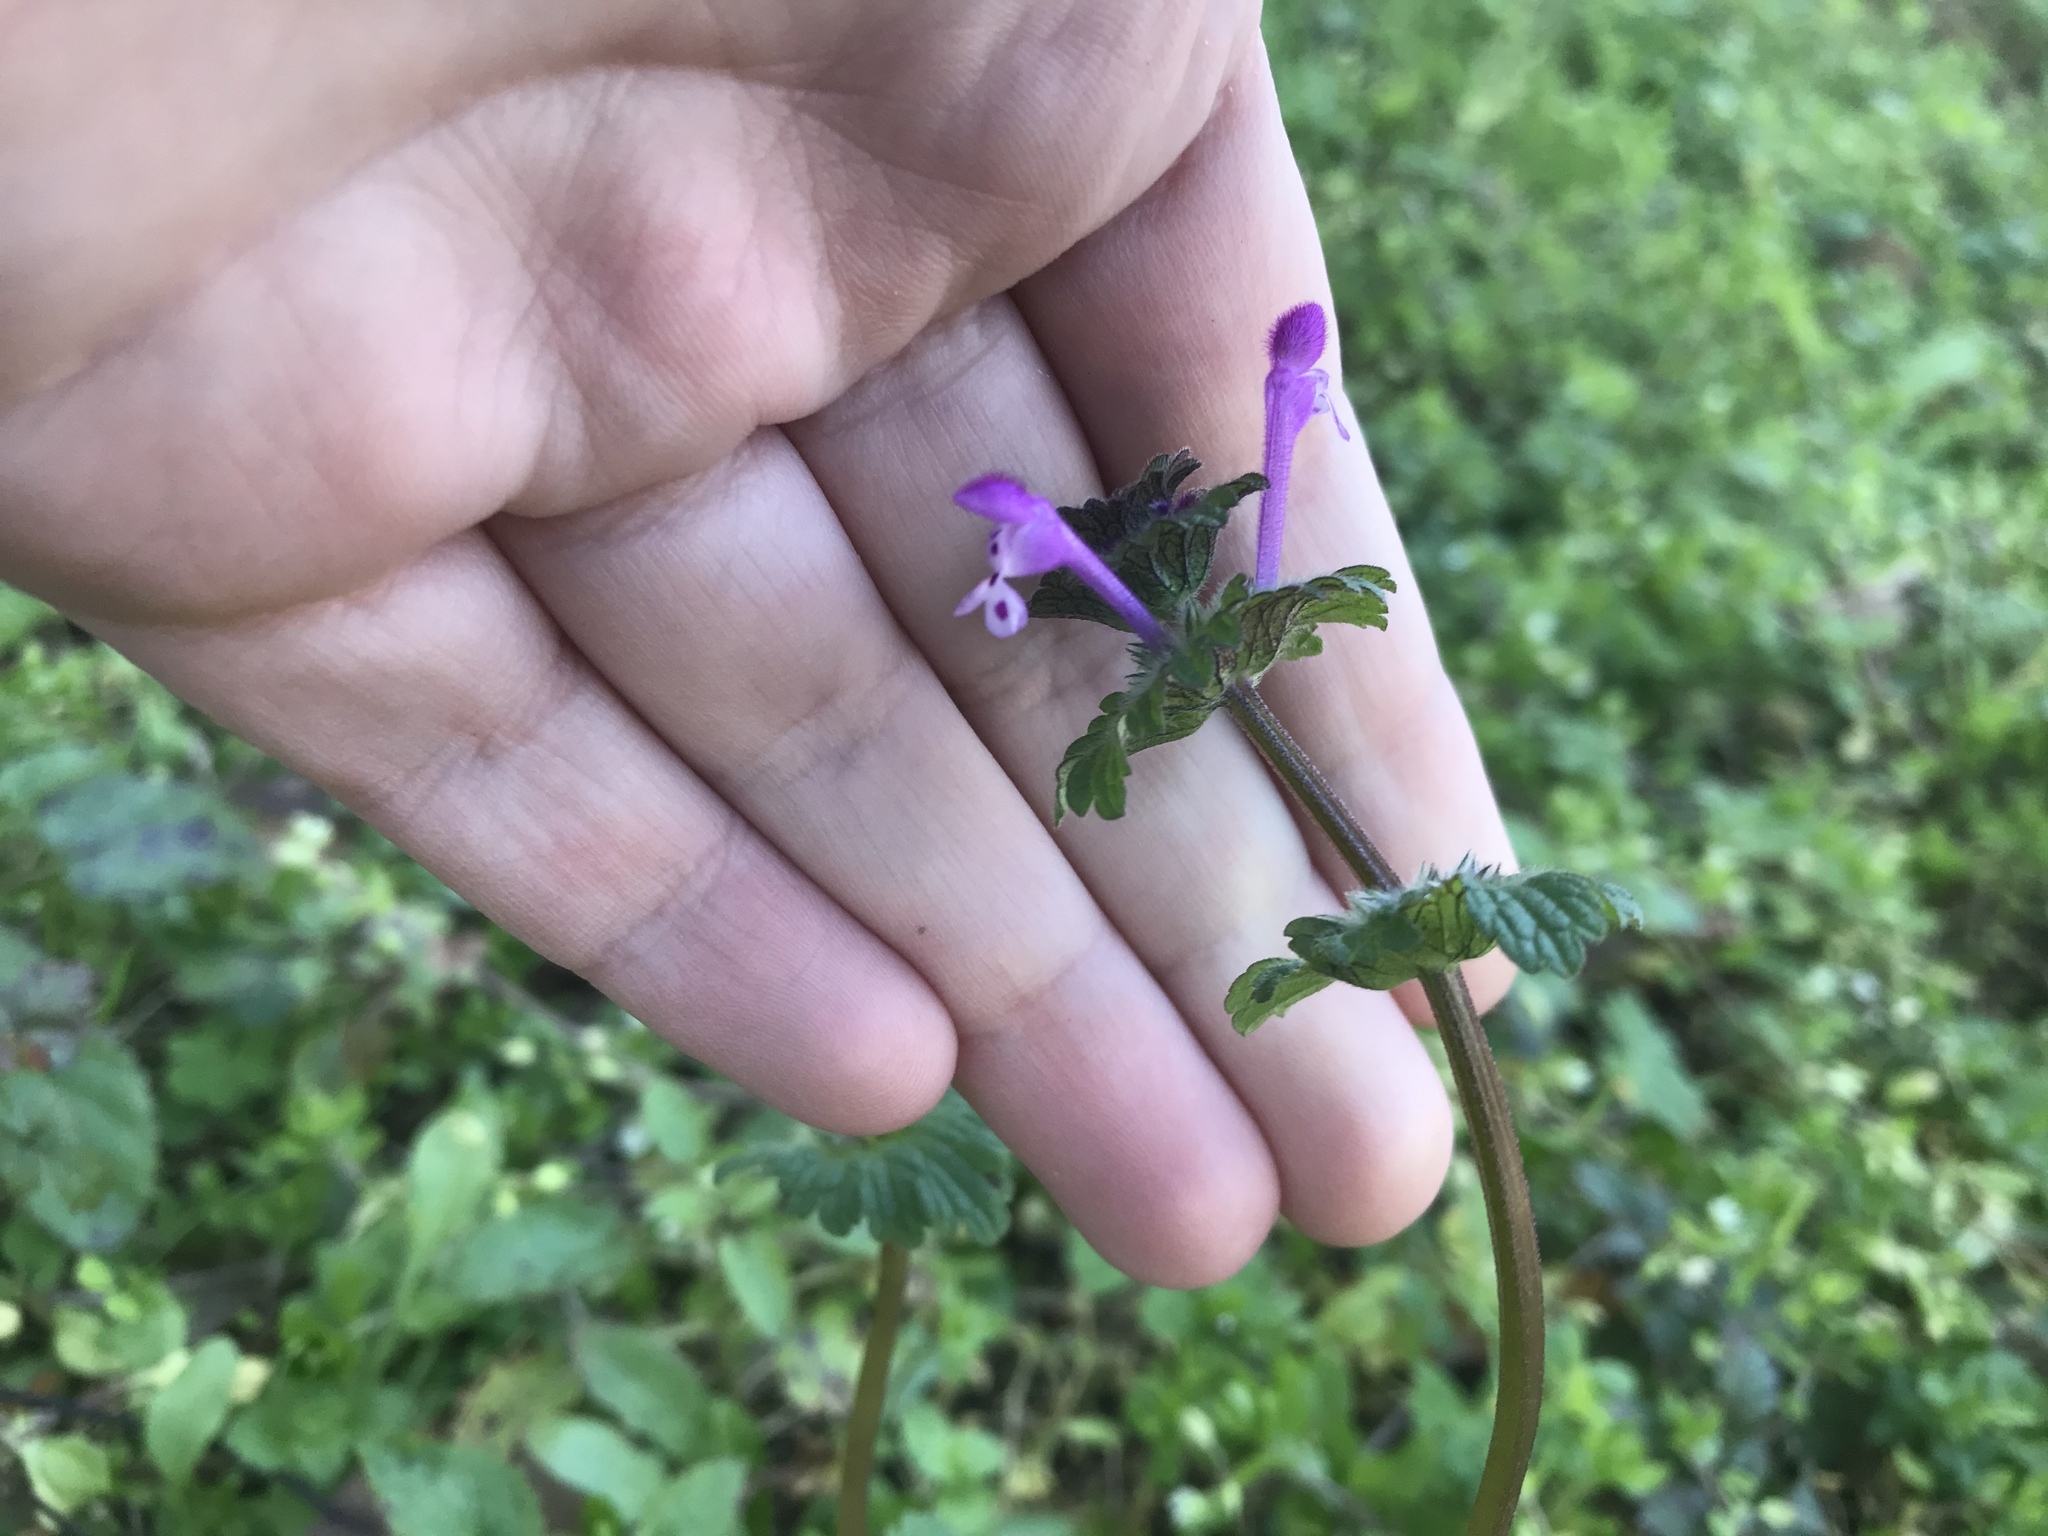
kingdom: Plantae
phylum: Tracheophyta
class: Magnoliopsida
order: Lamiales
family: Lamiaceae
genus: Lamium
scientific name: Lamium amplexicaule
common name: Henbit dead-nettle
